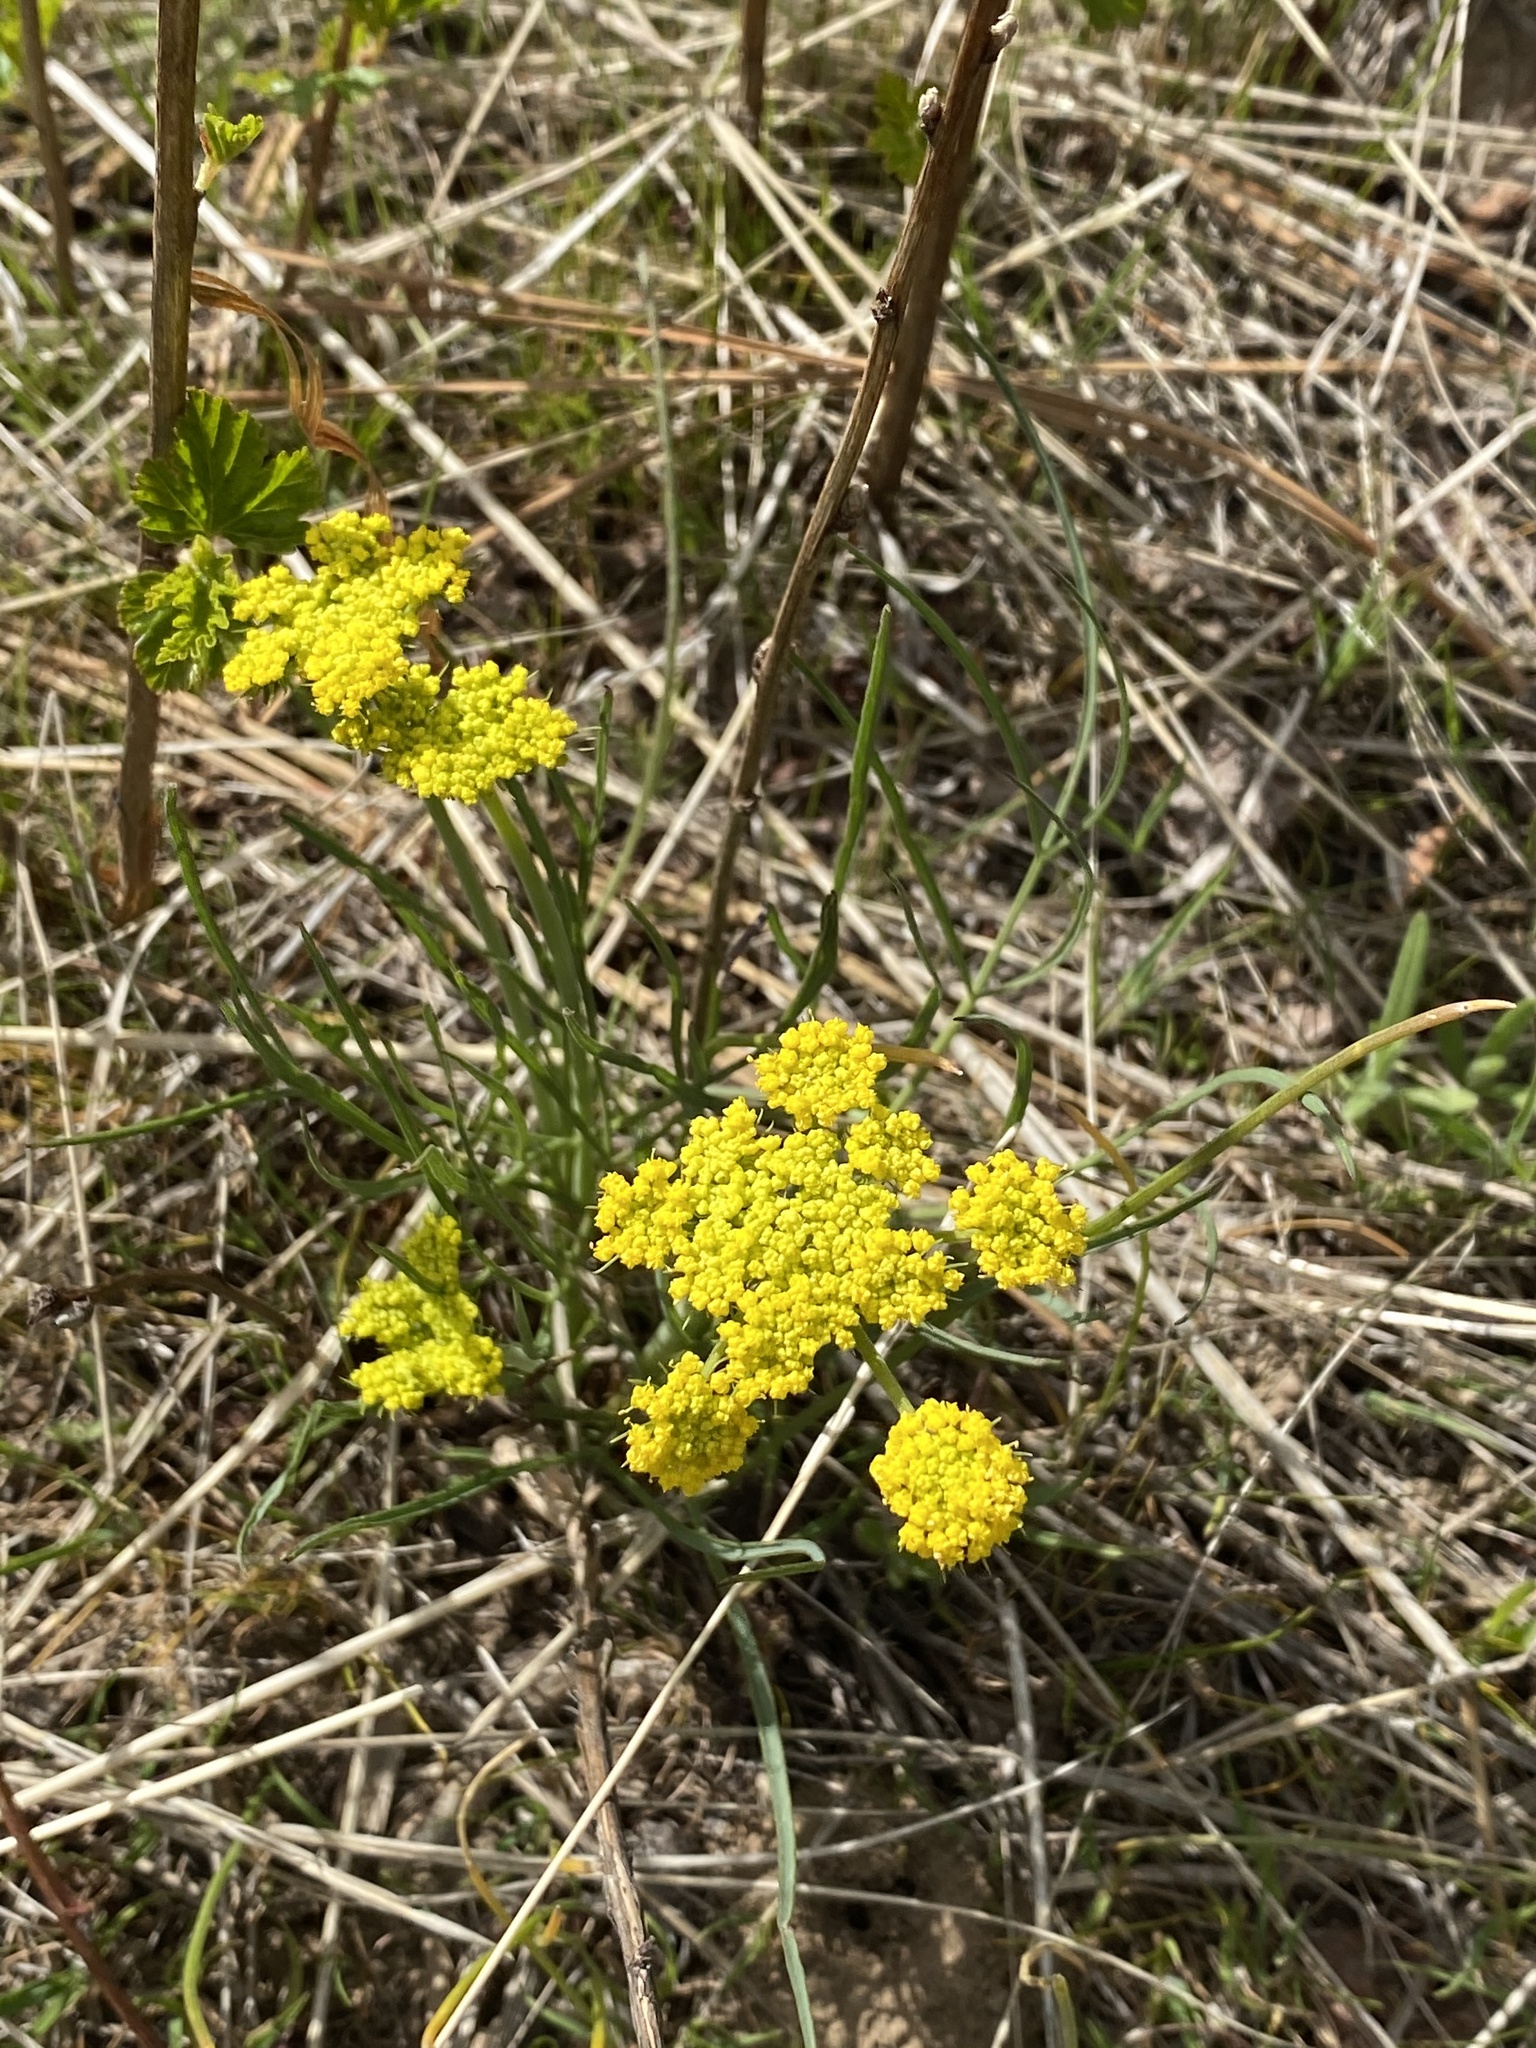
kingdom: Plantae
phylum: Tracheophyta
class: Magnoliopsida
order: Apiales
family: Apiaceae
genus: Lomatium
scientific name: Lomatium triternatum
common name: Ternate lomatium
